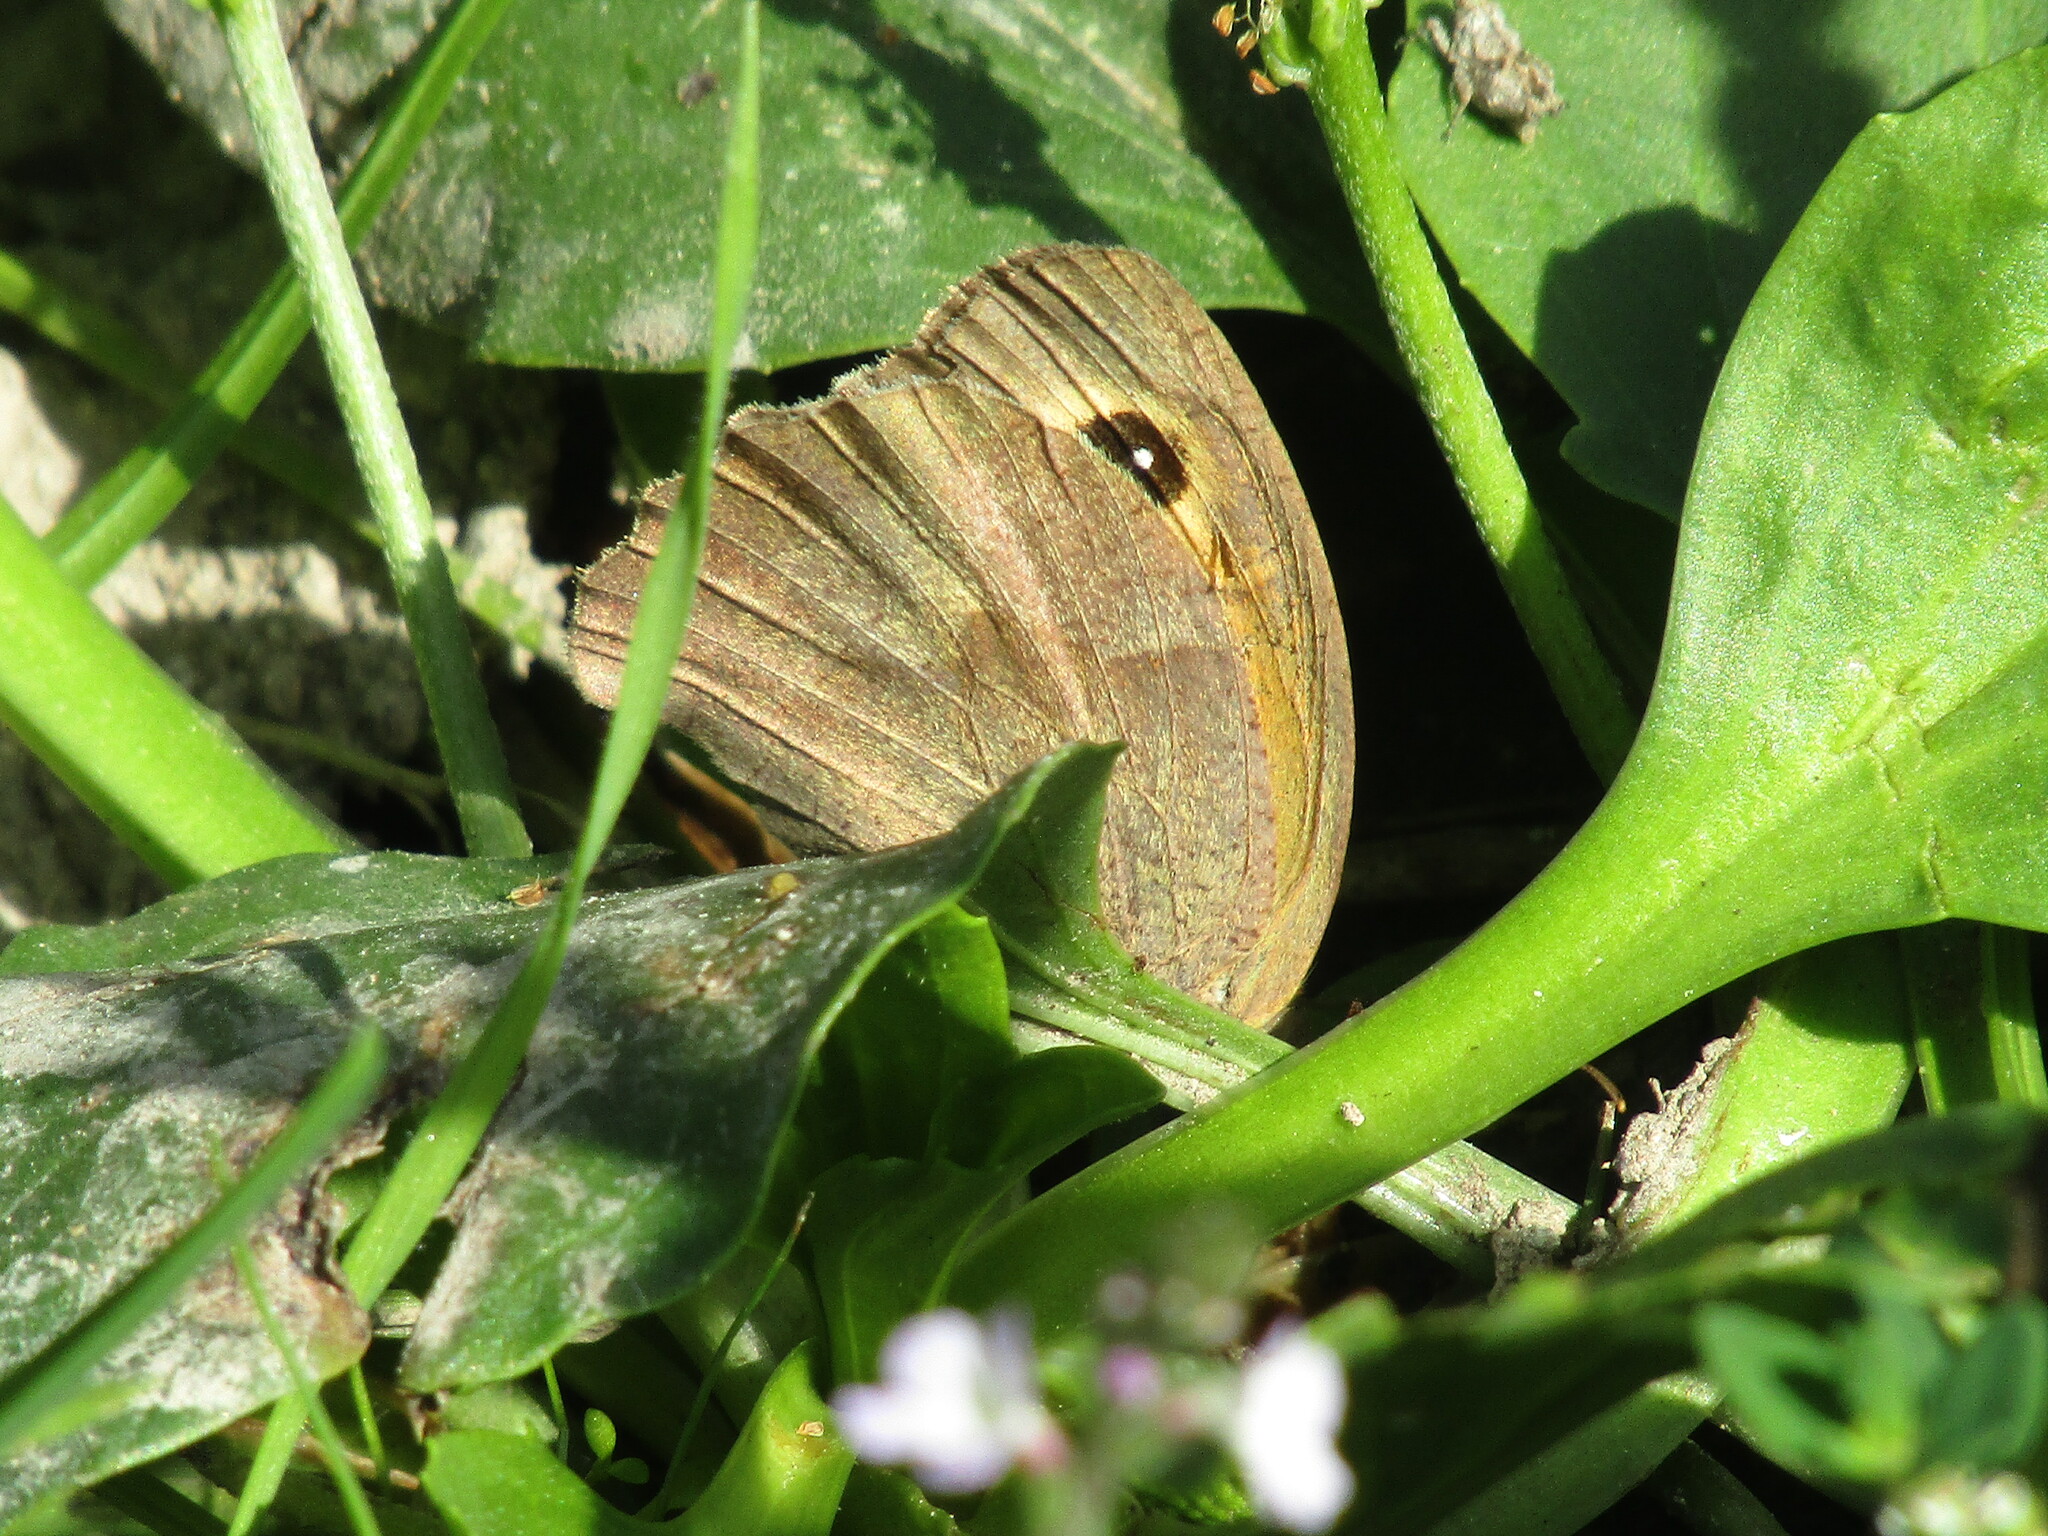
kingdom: Animalia
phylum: Arthropoda
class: Insecta
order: Lepidoptera
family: Nymphalidae
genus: Maniola
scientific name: Maniola jurtina
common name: Meadow brown
